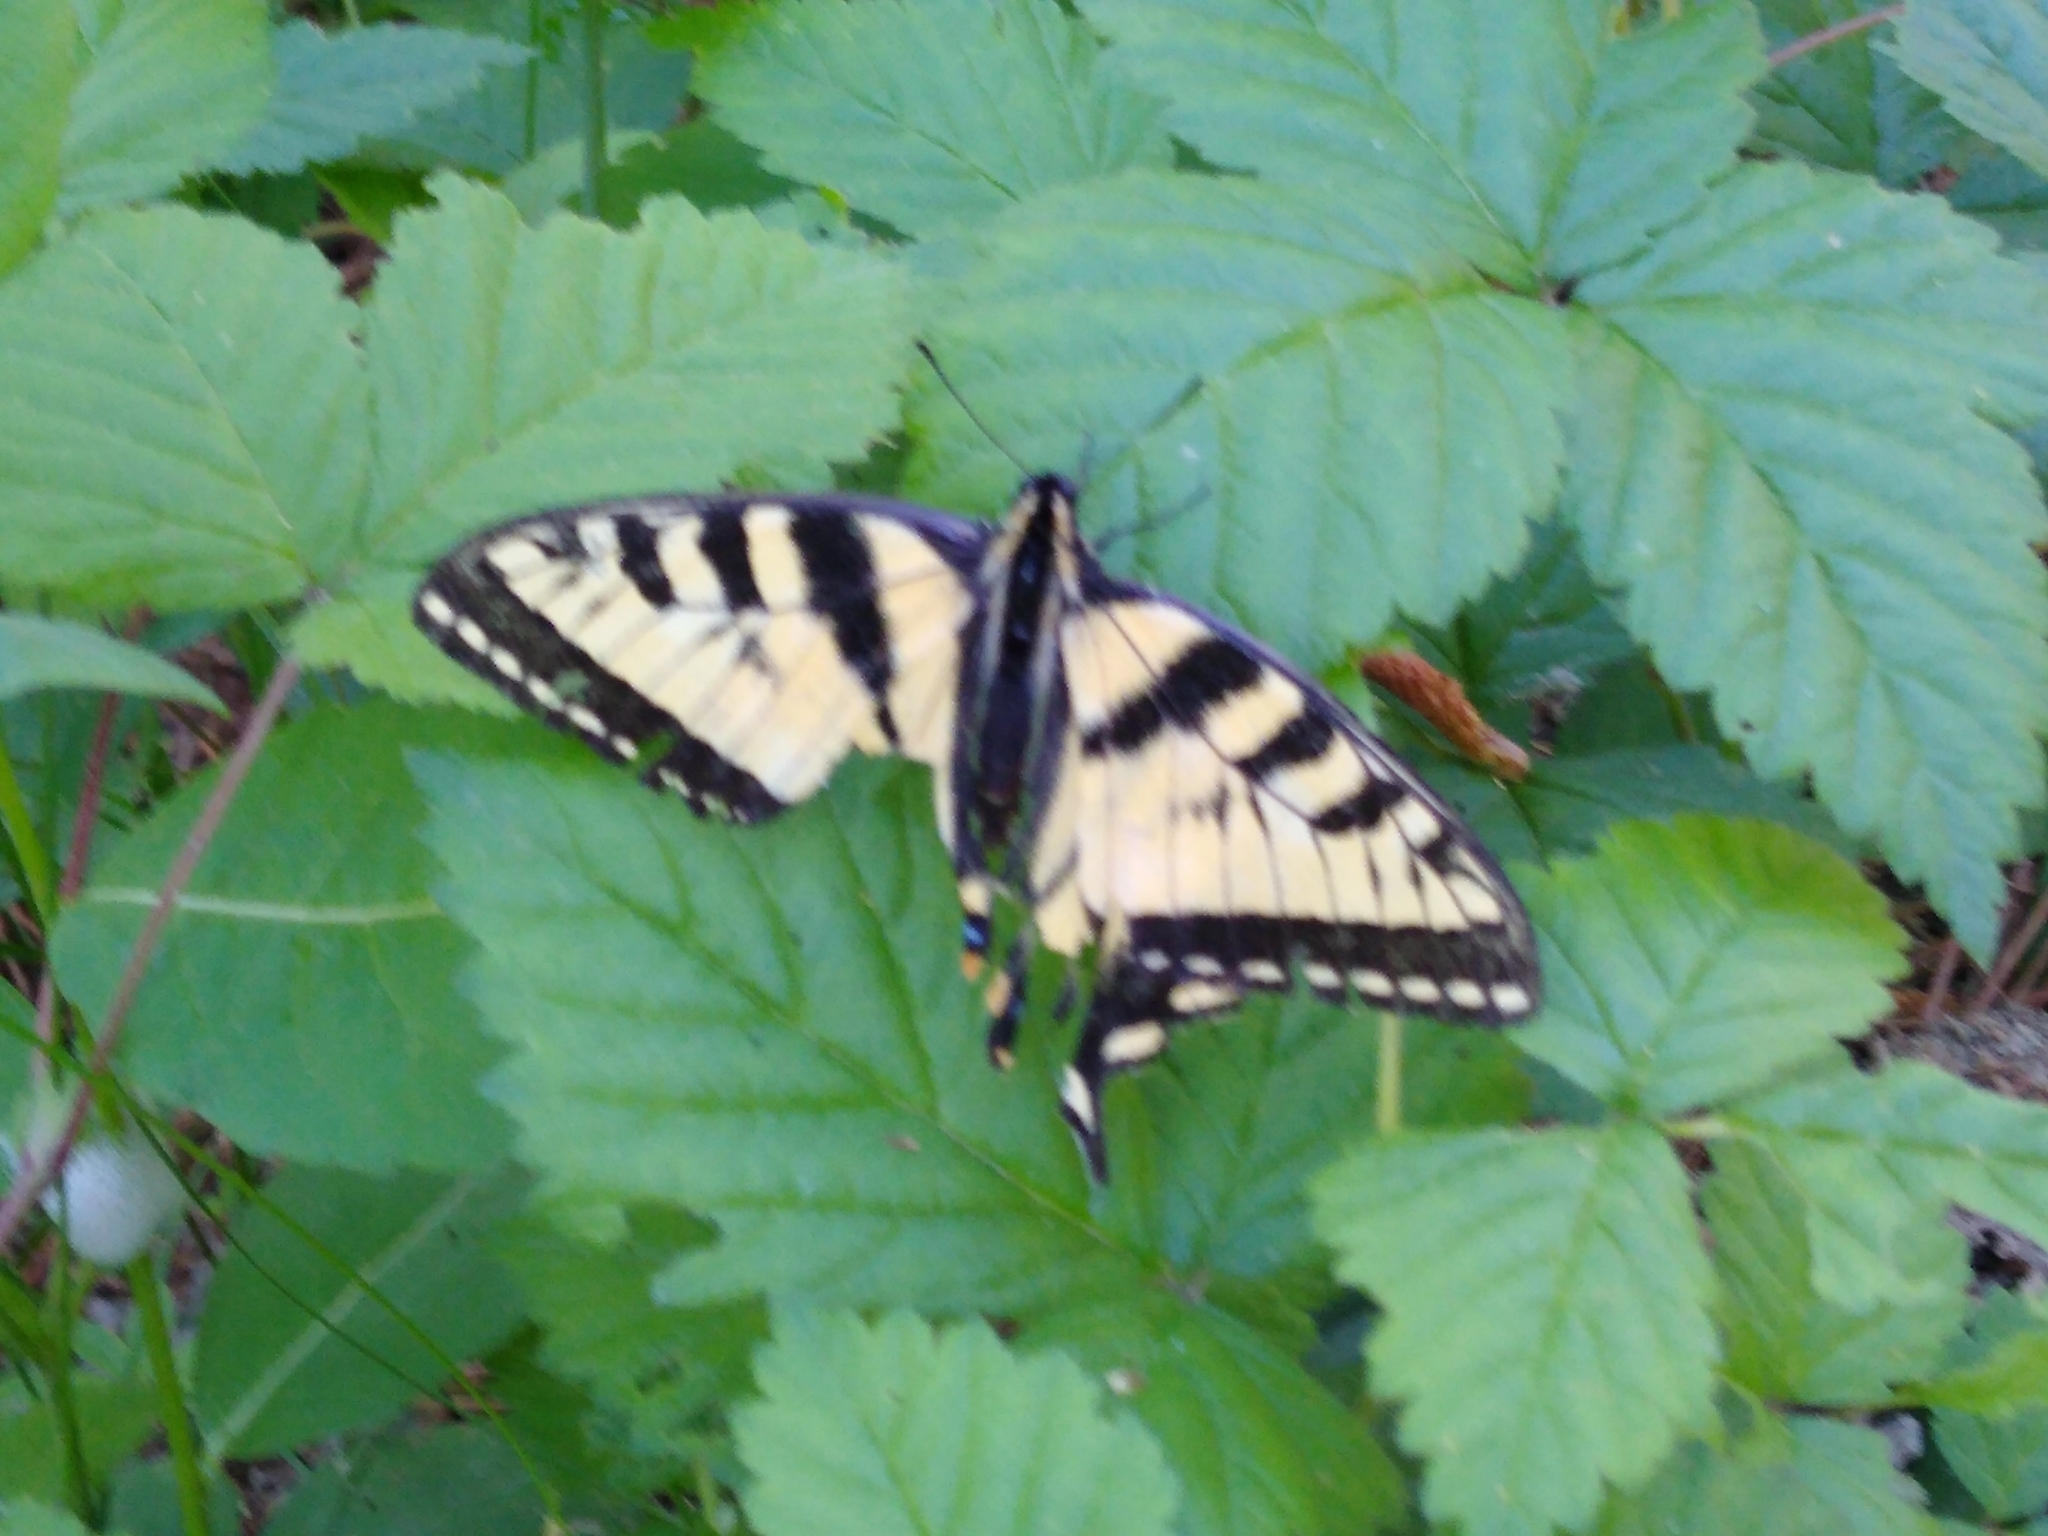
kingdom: Animalia
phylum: Arthropoda
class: Insecta
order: Lepidoptera
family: Papilionidae
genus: Papilio
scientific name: Papilio canadensis
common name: Canadian tiger swallowtail
